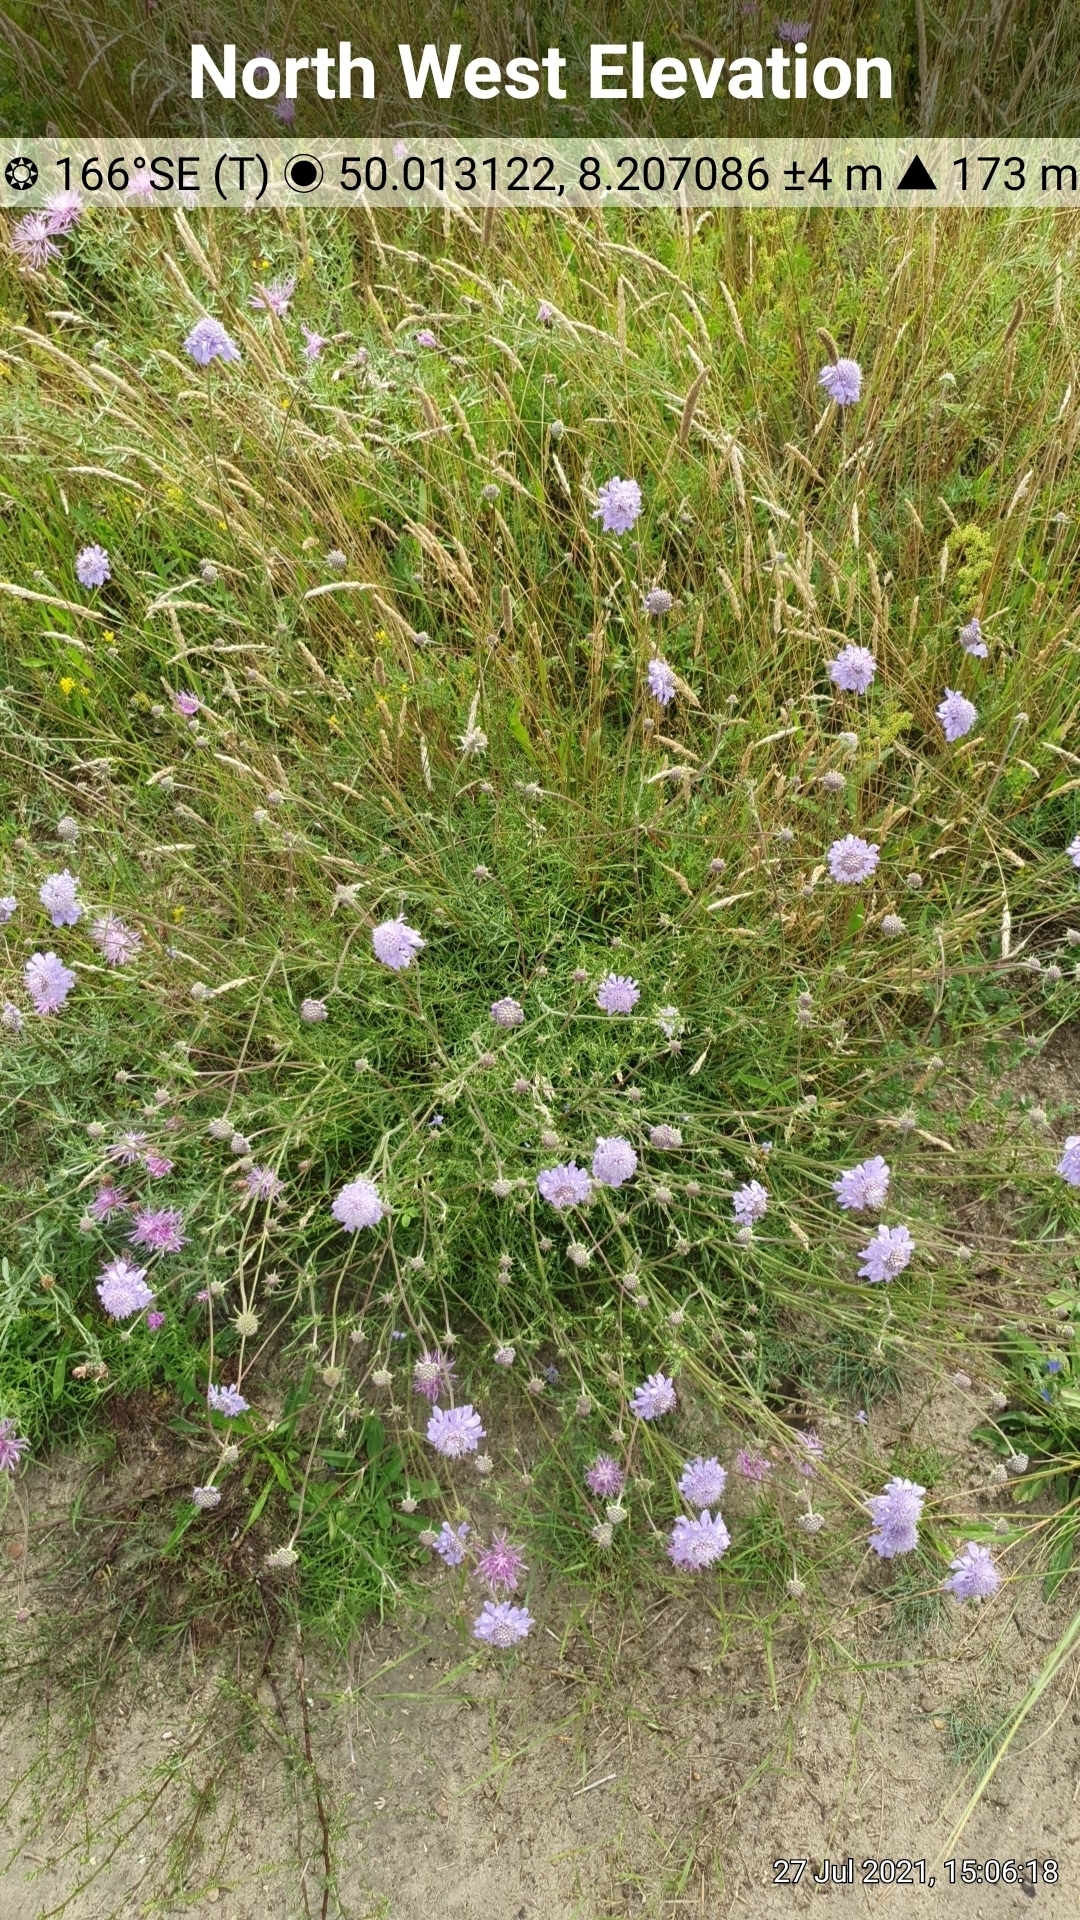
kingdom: Plantae
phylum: Tracheophyta
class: Magnoliopsida
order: Dipsacales
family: Caprifoliaceae
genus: Scabiosa
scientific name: Scabiosa columbaria
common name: Small scabious
